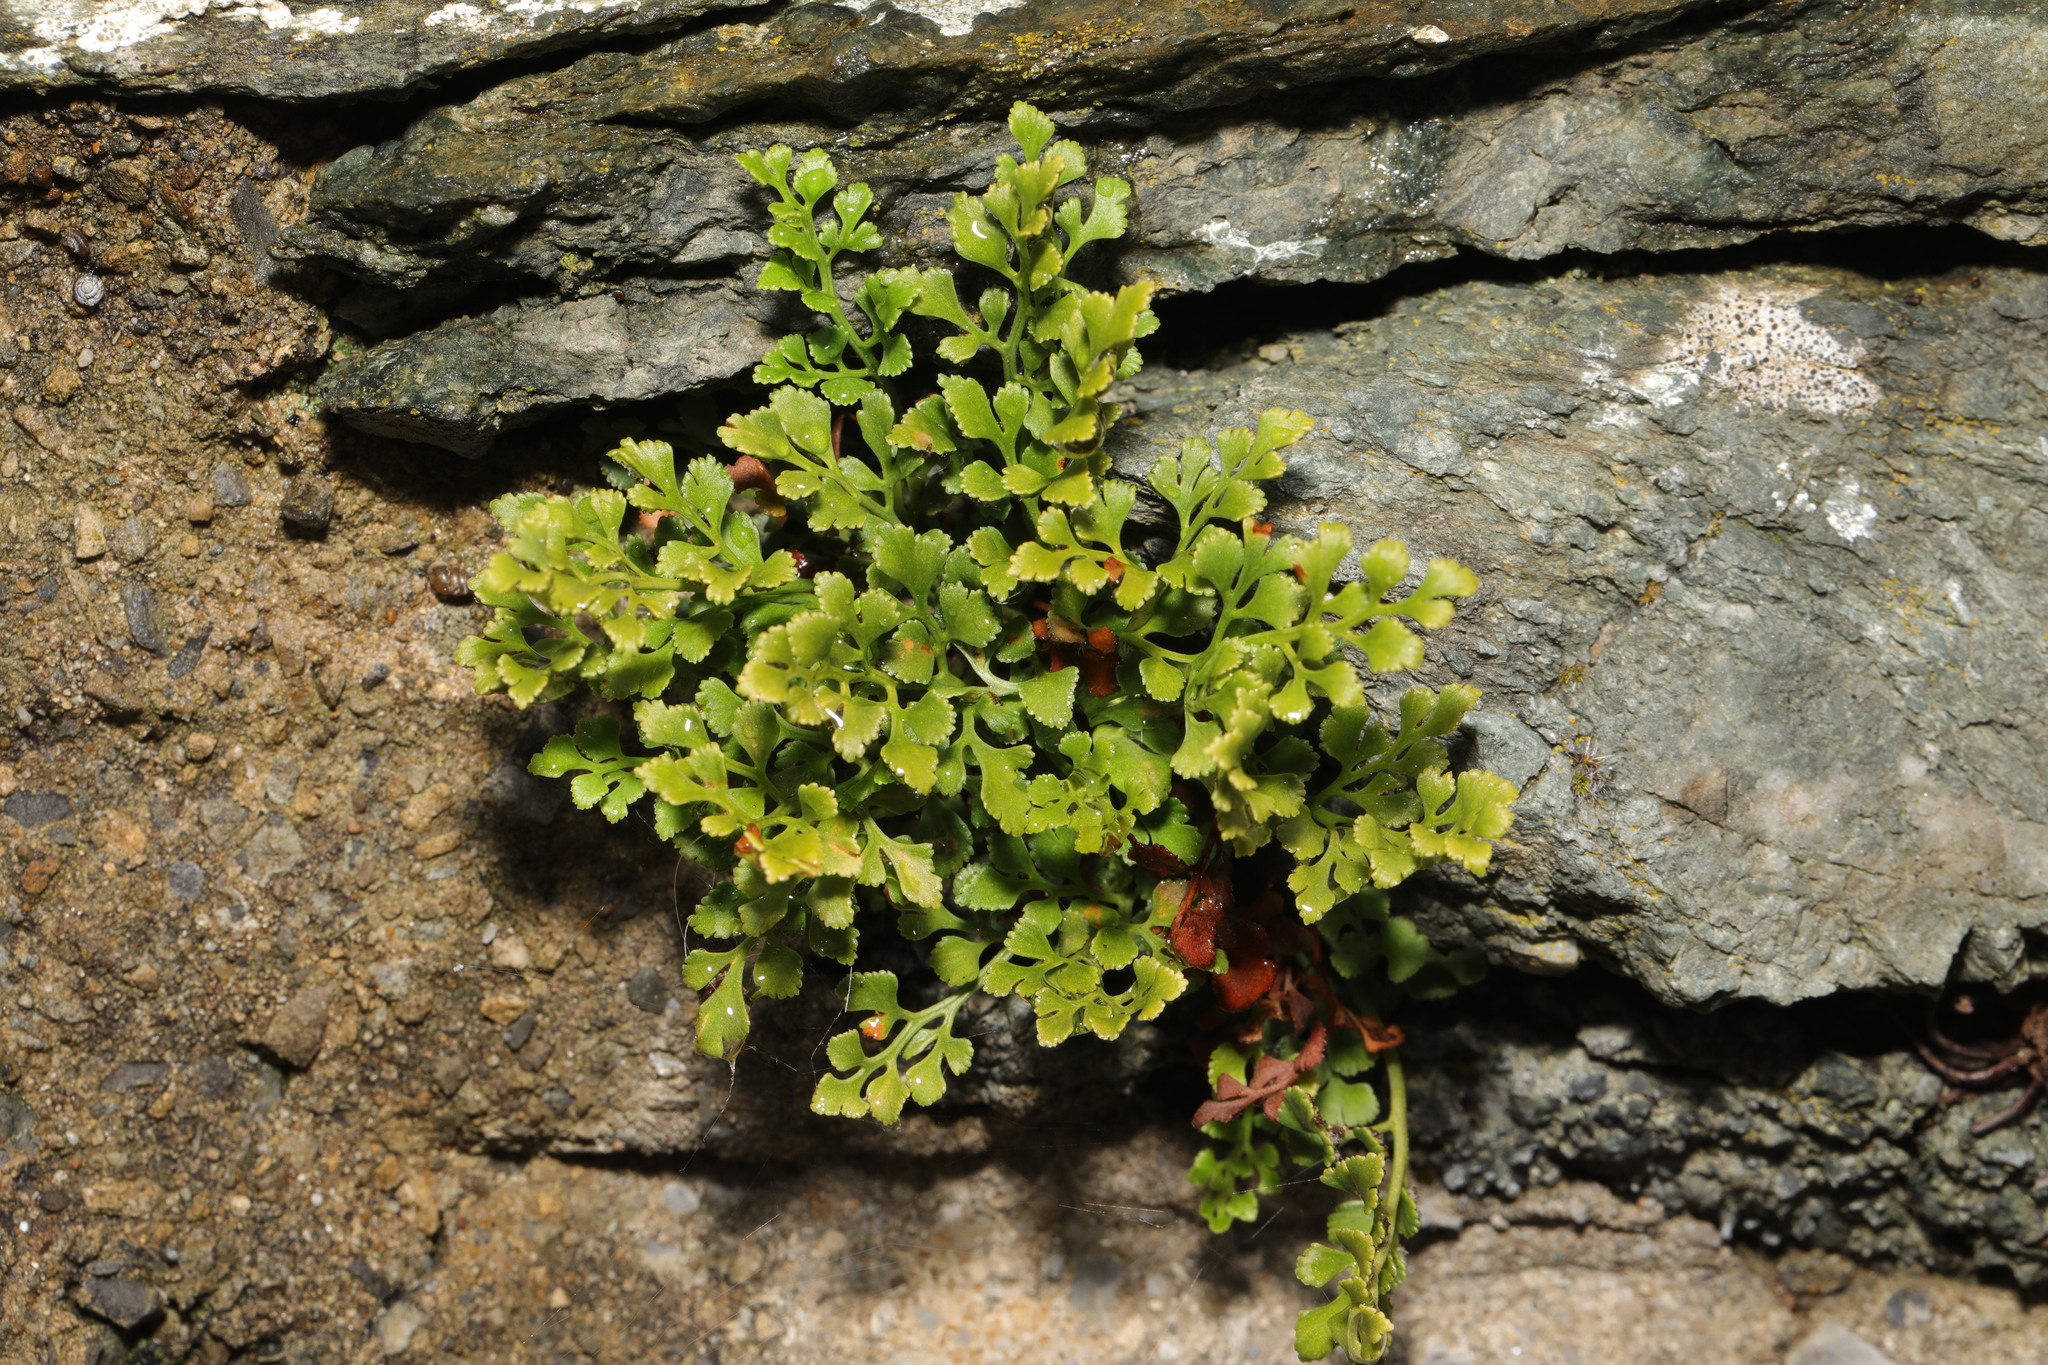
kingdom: Plantae
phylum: Tracheophyta
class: Polypodiopsida
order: Polypodiales
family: Aspleniaceae
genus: Asplenium
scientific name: Asplenium ruta-muraria
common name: Wall-rue
